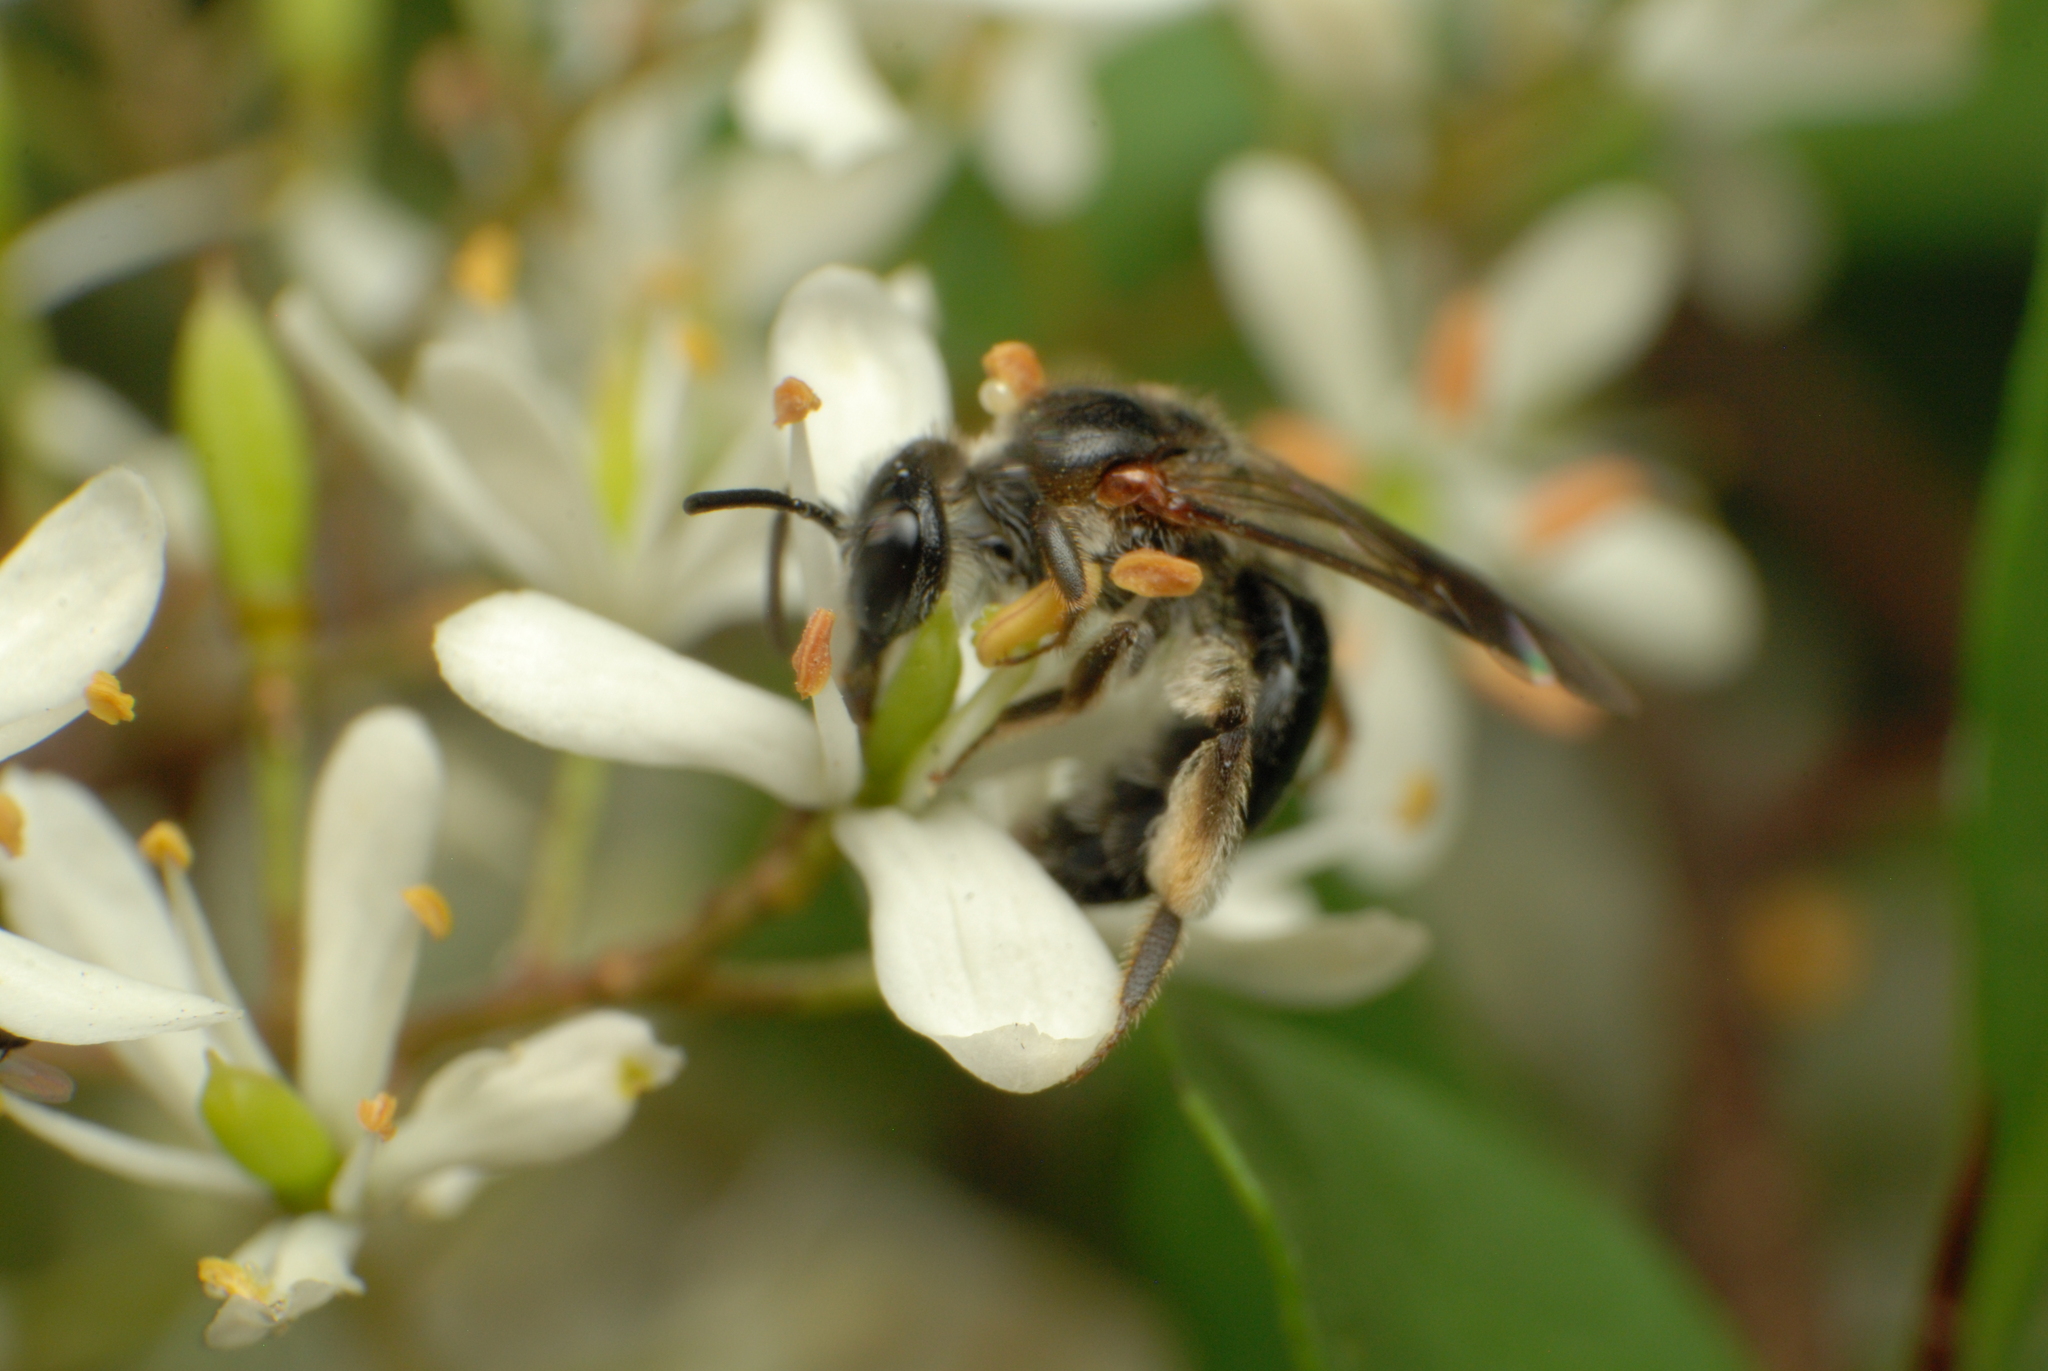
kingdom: Animalia
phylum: Arthropoda
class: Insecta
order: Hymenoptera
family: Colletidae
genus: Leioproctus
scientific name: Leioproctus launcestonensis
